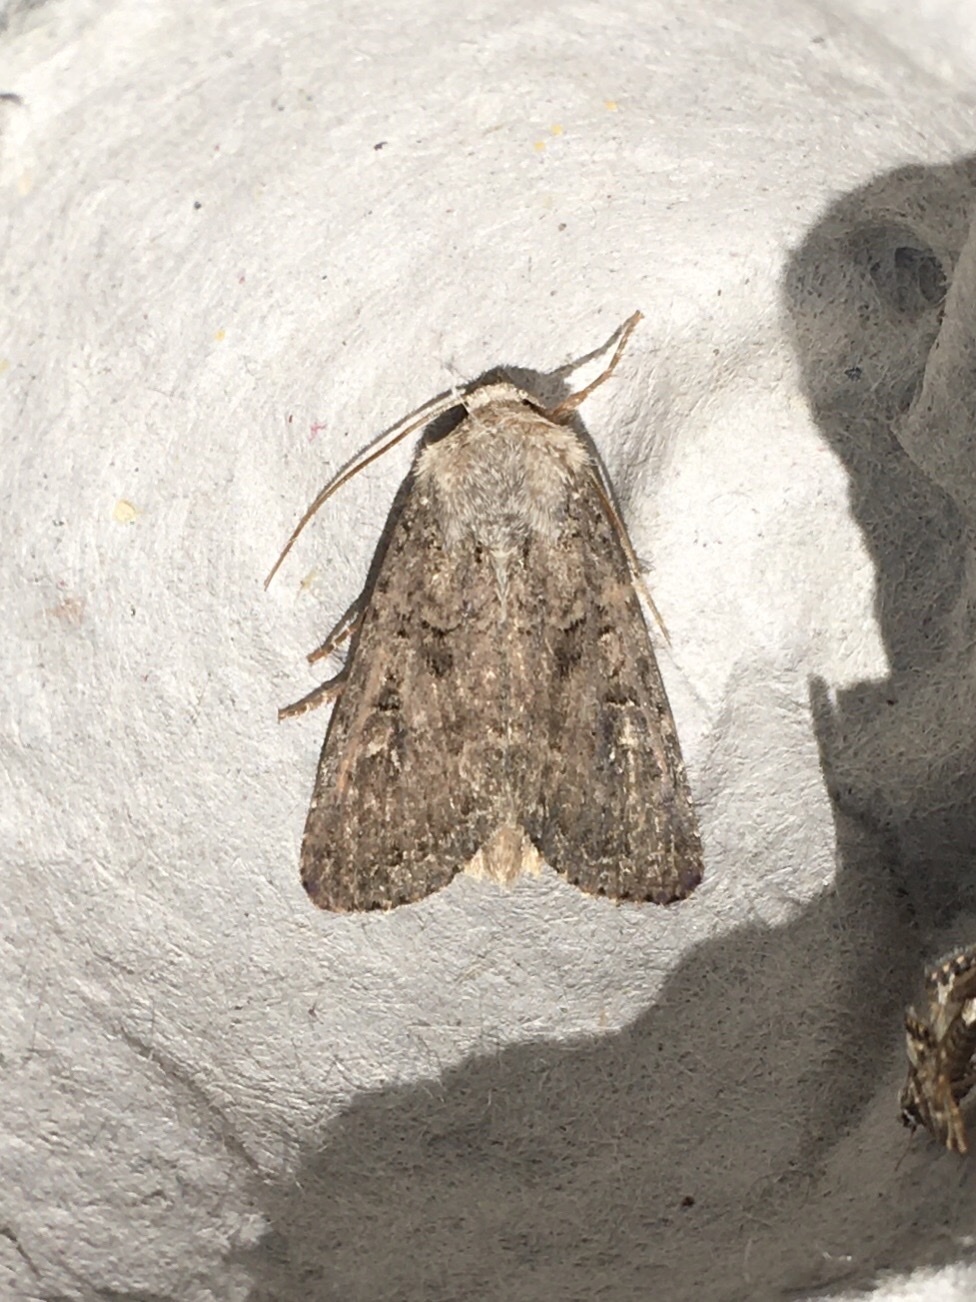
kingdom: Animalia
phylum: Arthropoda
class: Insecta
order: Lepidoptera
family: Noctuidae
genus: Apamea
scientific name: Apamea devastator
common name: Glassy cutworm
